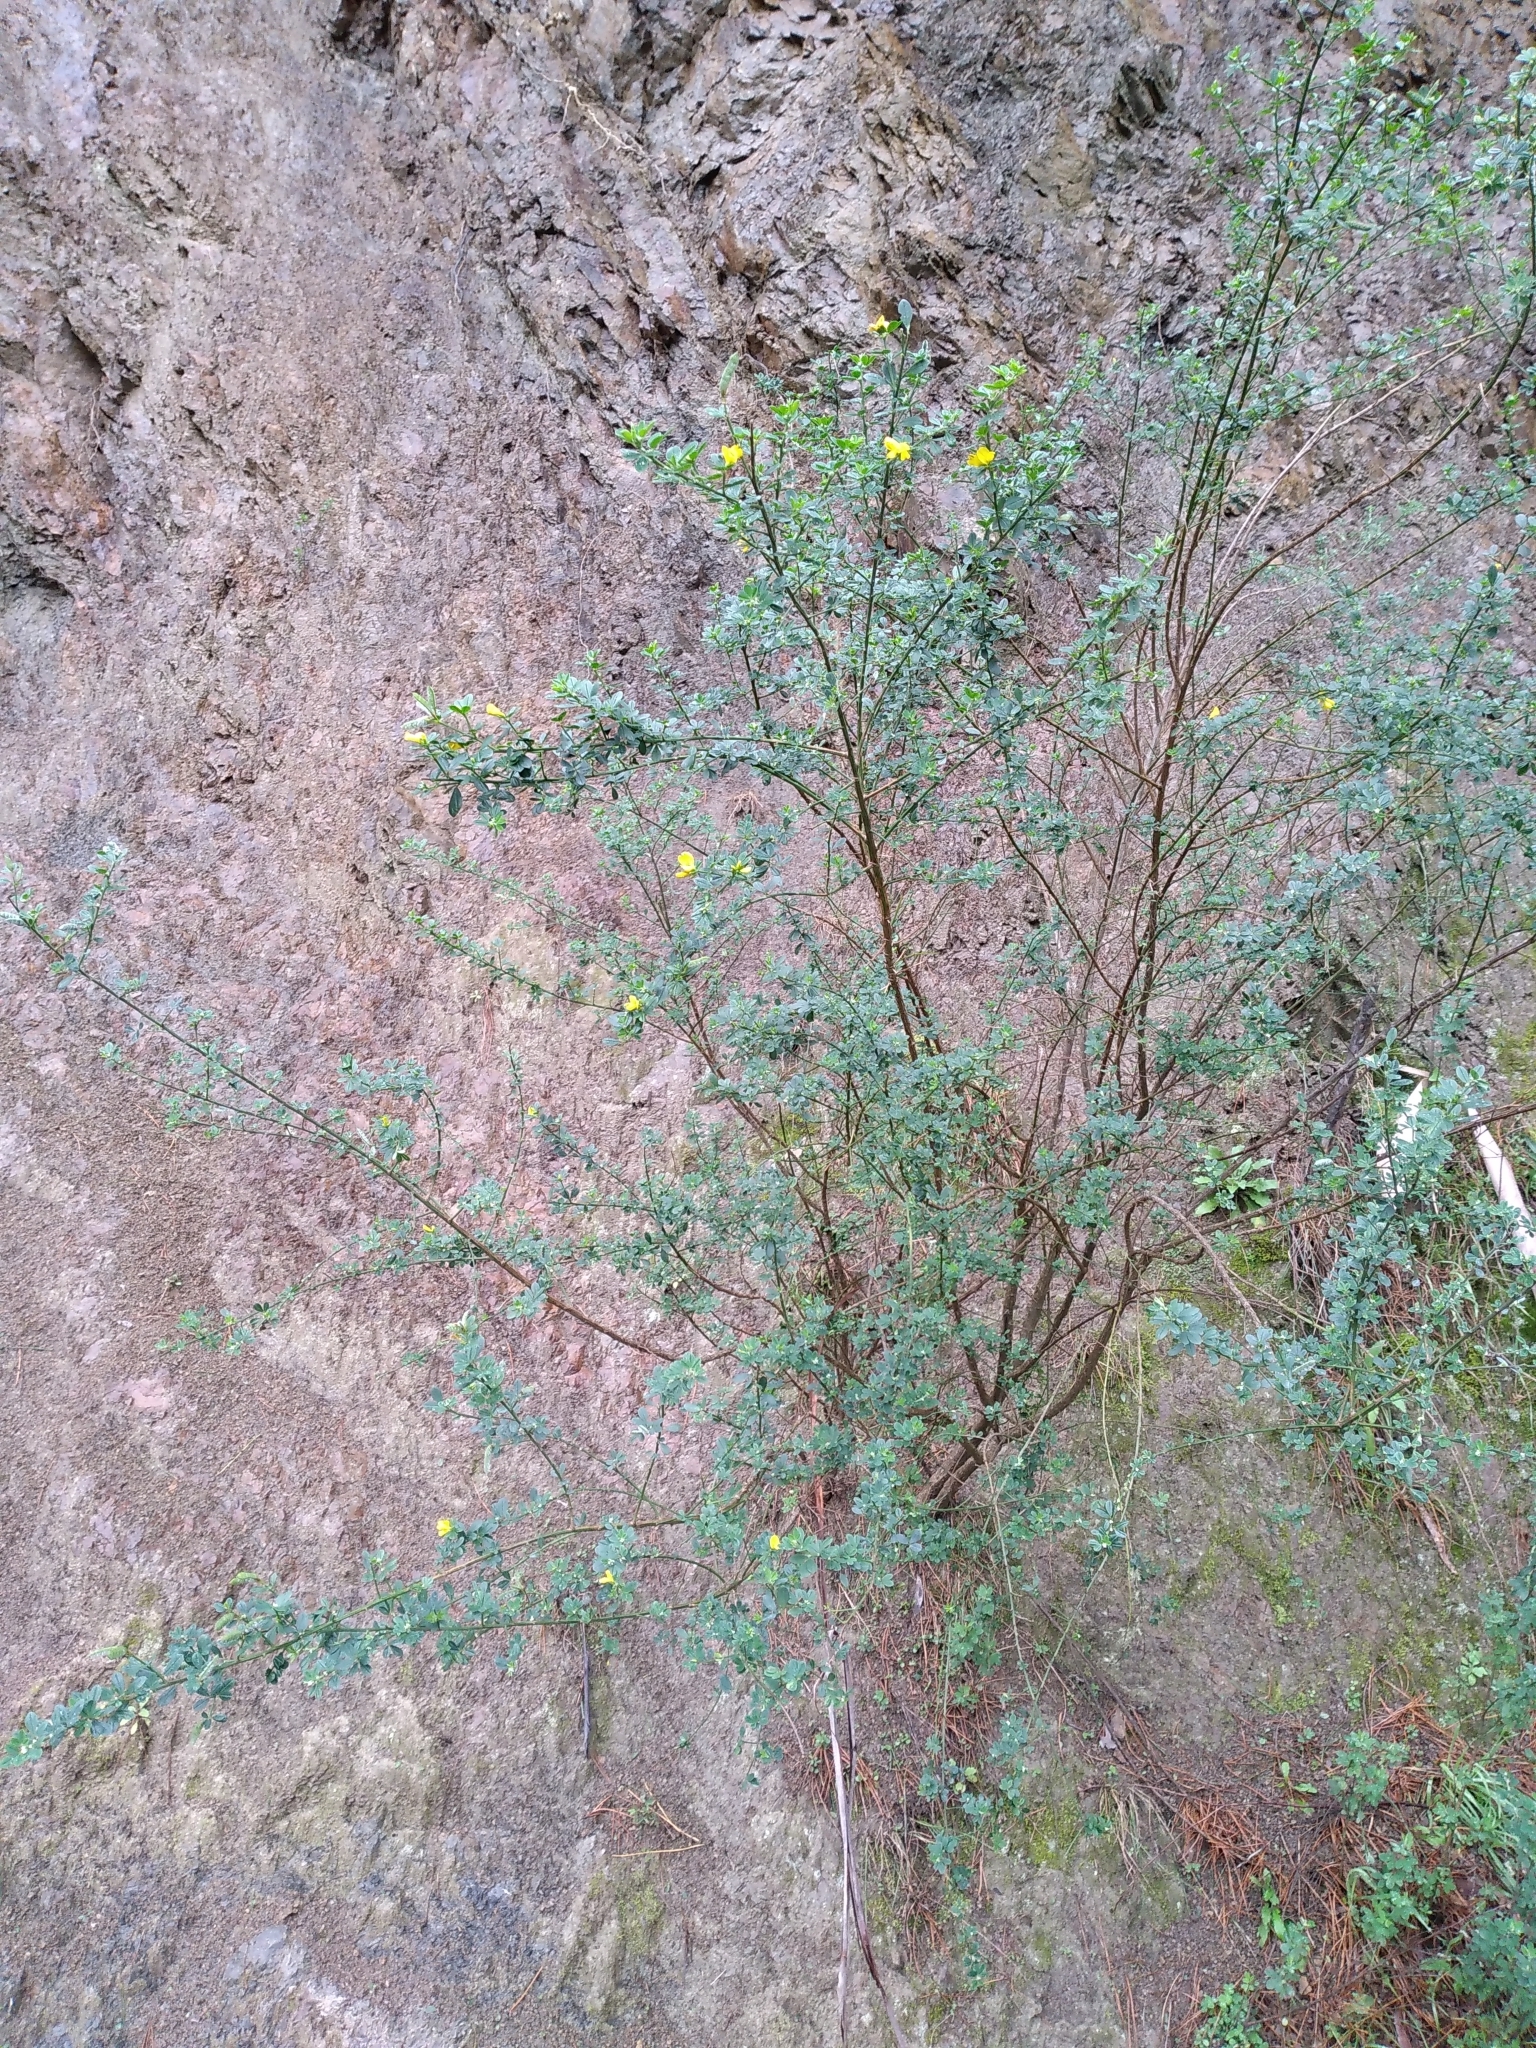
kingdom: Plantae
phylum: Tracheophyta
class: Magnoliopsida
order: Fabales
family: Fabaceae
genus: Genista
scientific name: Genista monspessulana
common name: Montpellier broom
